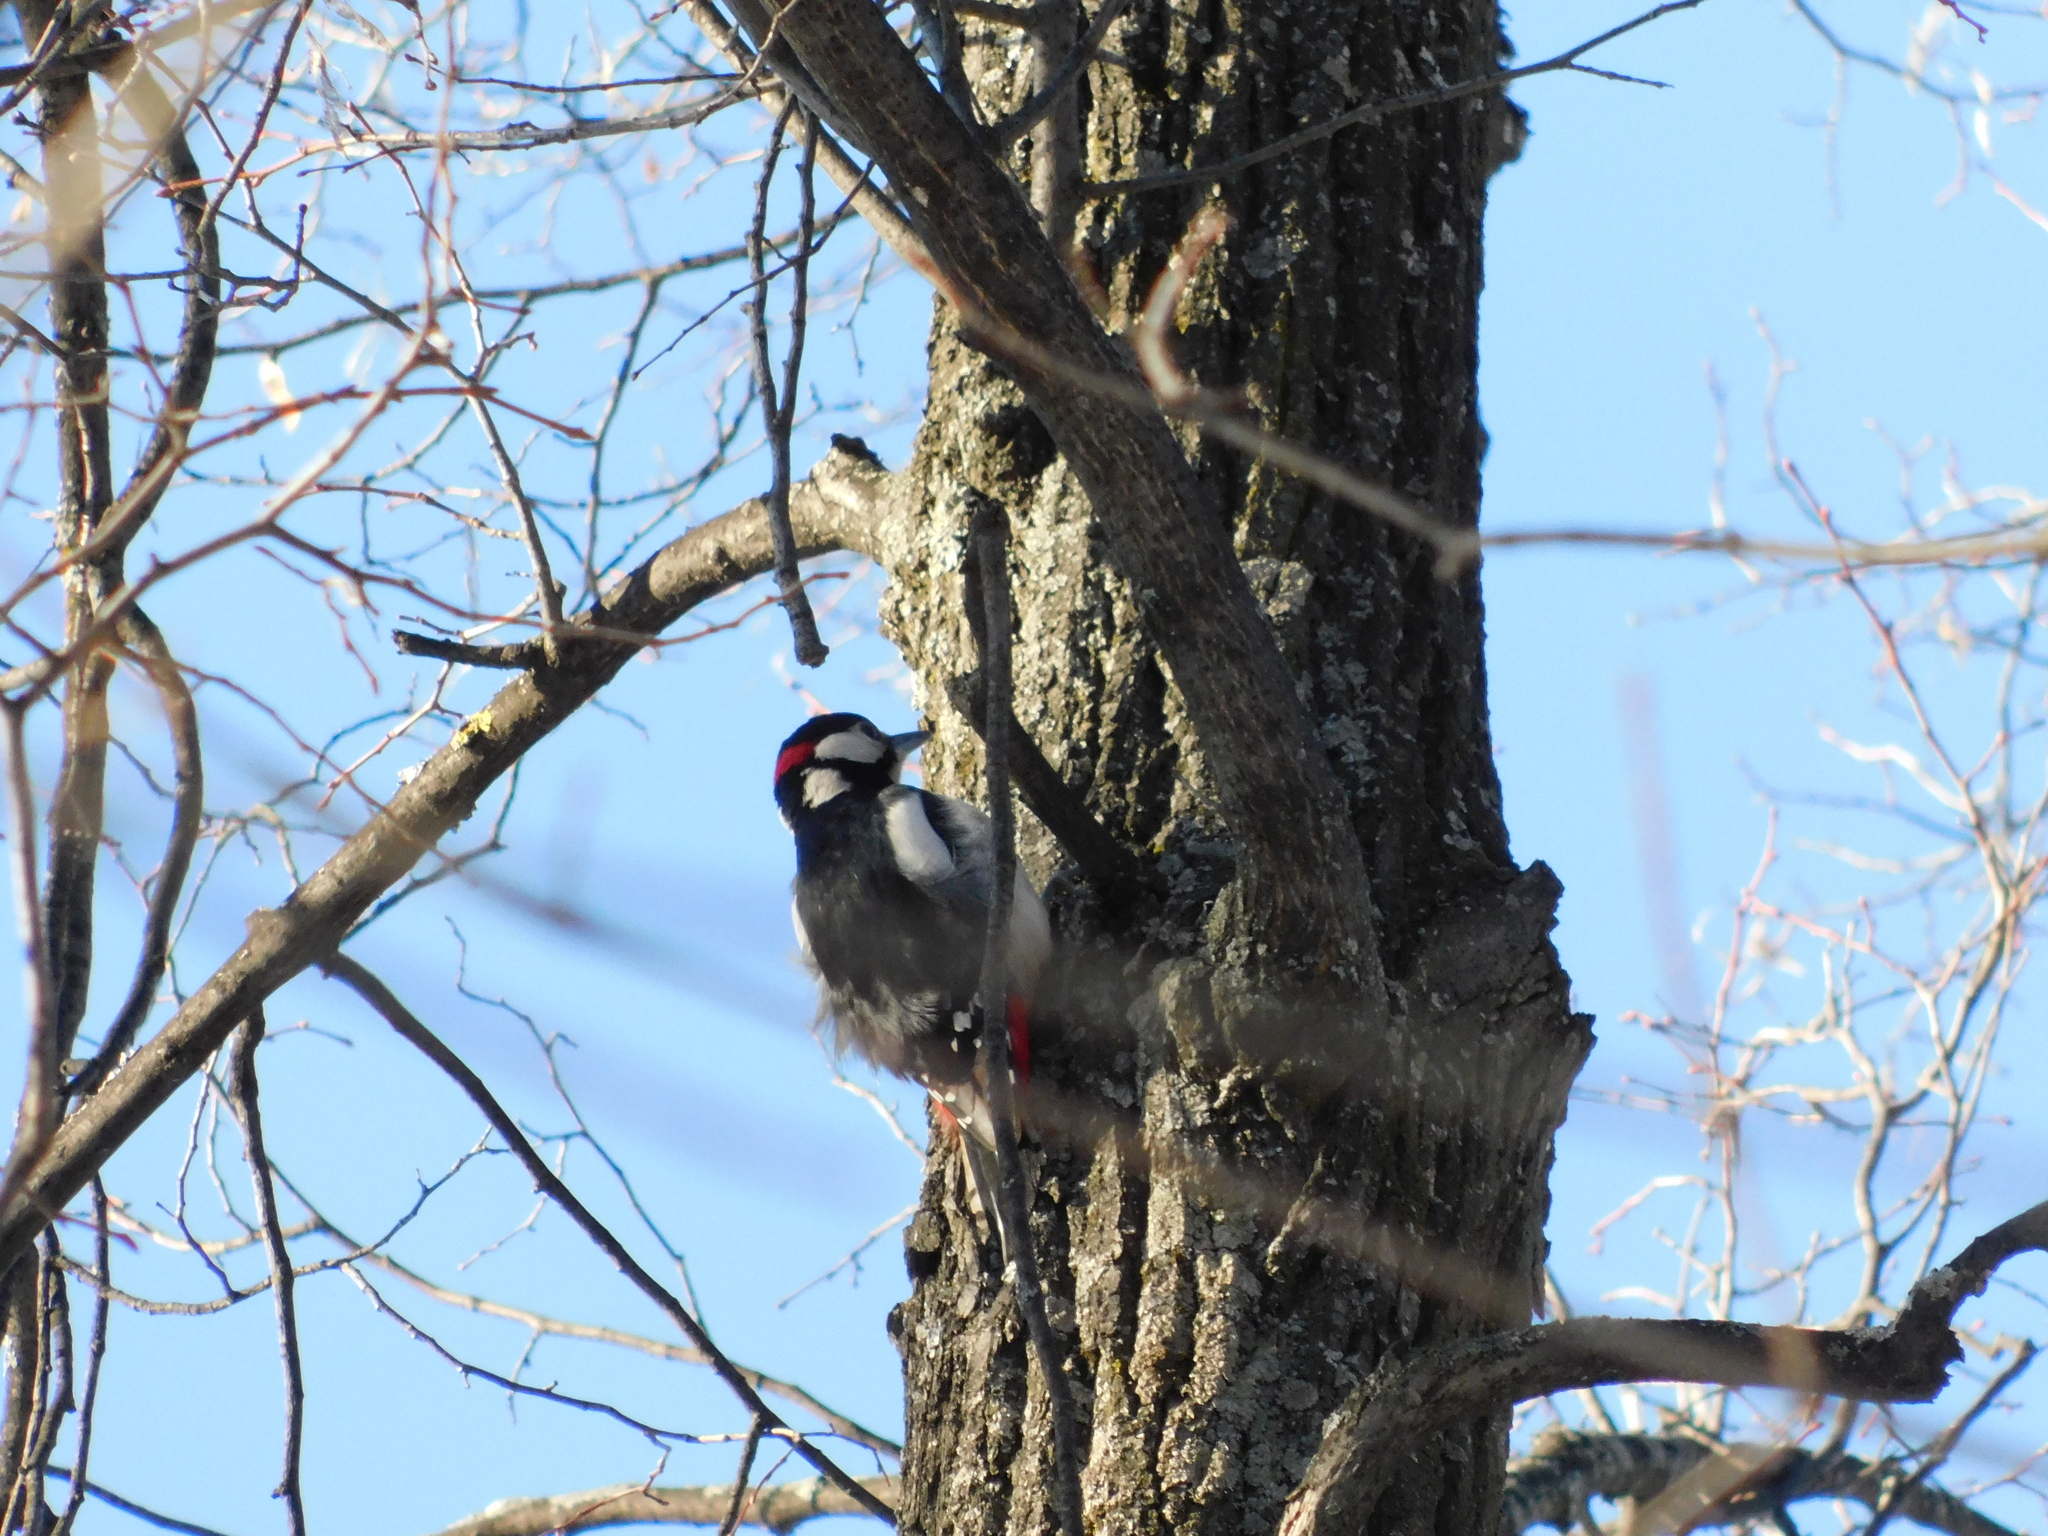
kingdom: Animalia
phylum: Chordata
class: Aves
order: Piciformes
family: Picidae
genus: Dendrocopos
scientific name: Dendrocopos major
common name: Great spotted woodpecker
